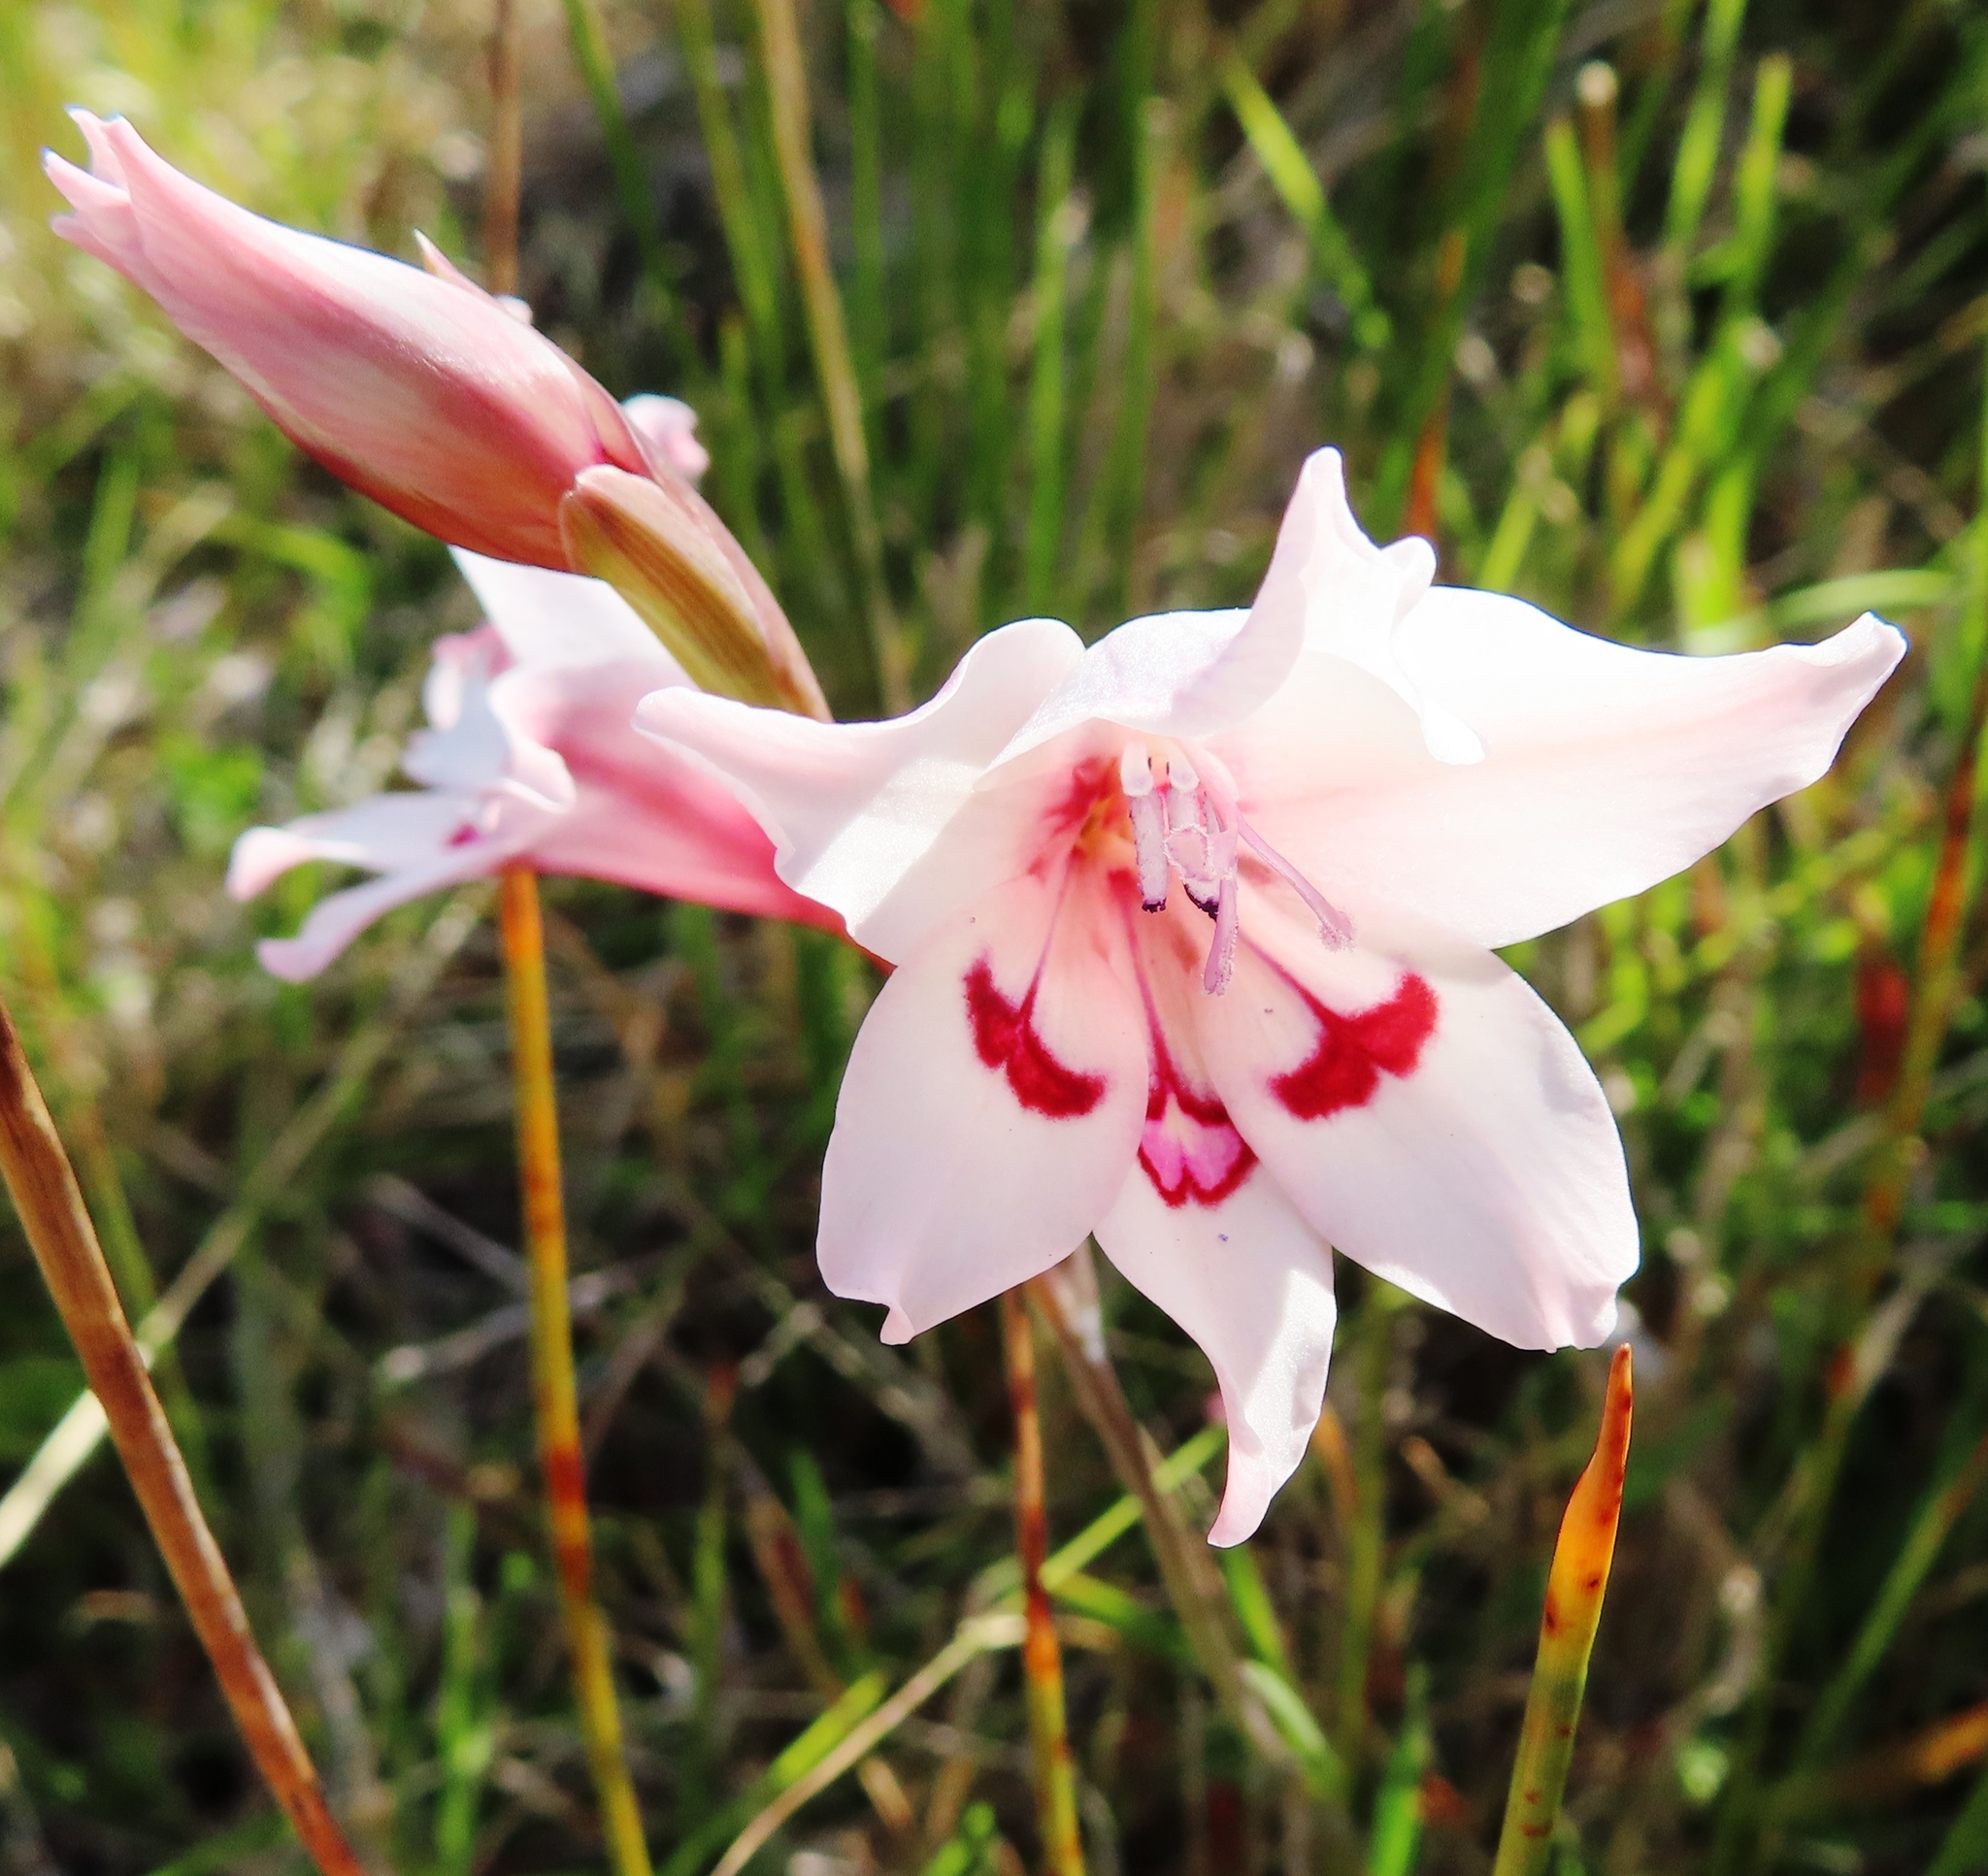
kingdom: Plantae
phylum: Tracheophyta
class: Liliopsida
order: Asparagales
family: Iridaceae
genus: Gladiolus
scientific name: Gladiolus carneus
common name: Painted-lady
